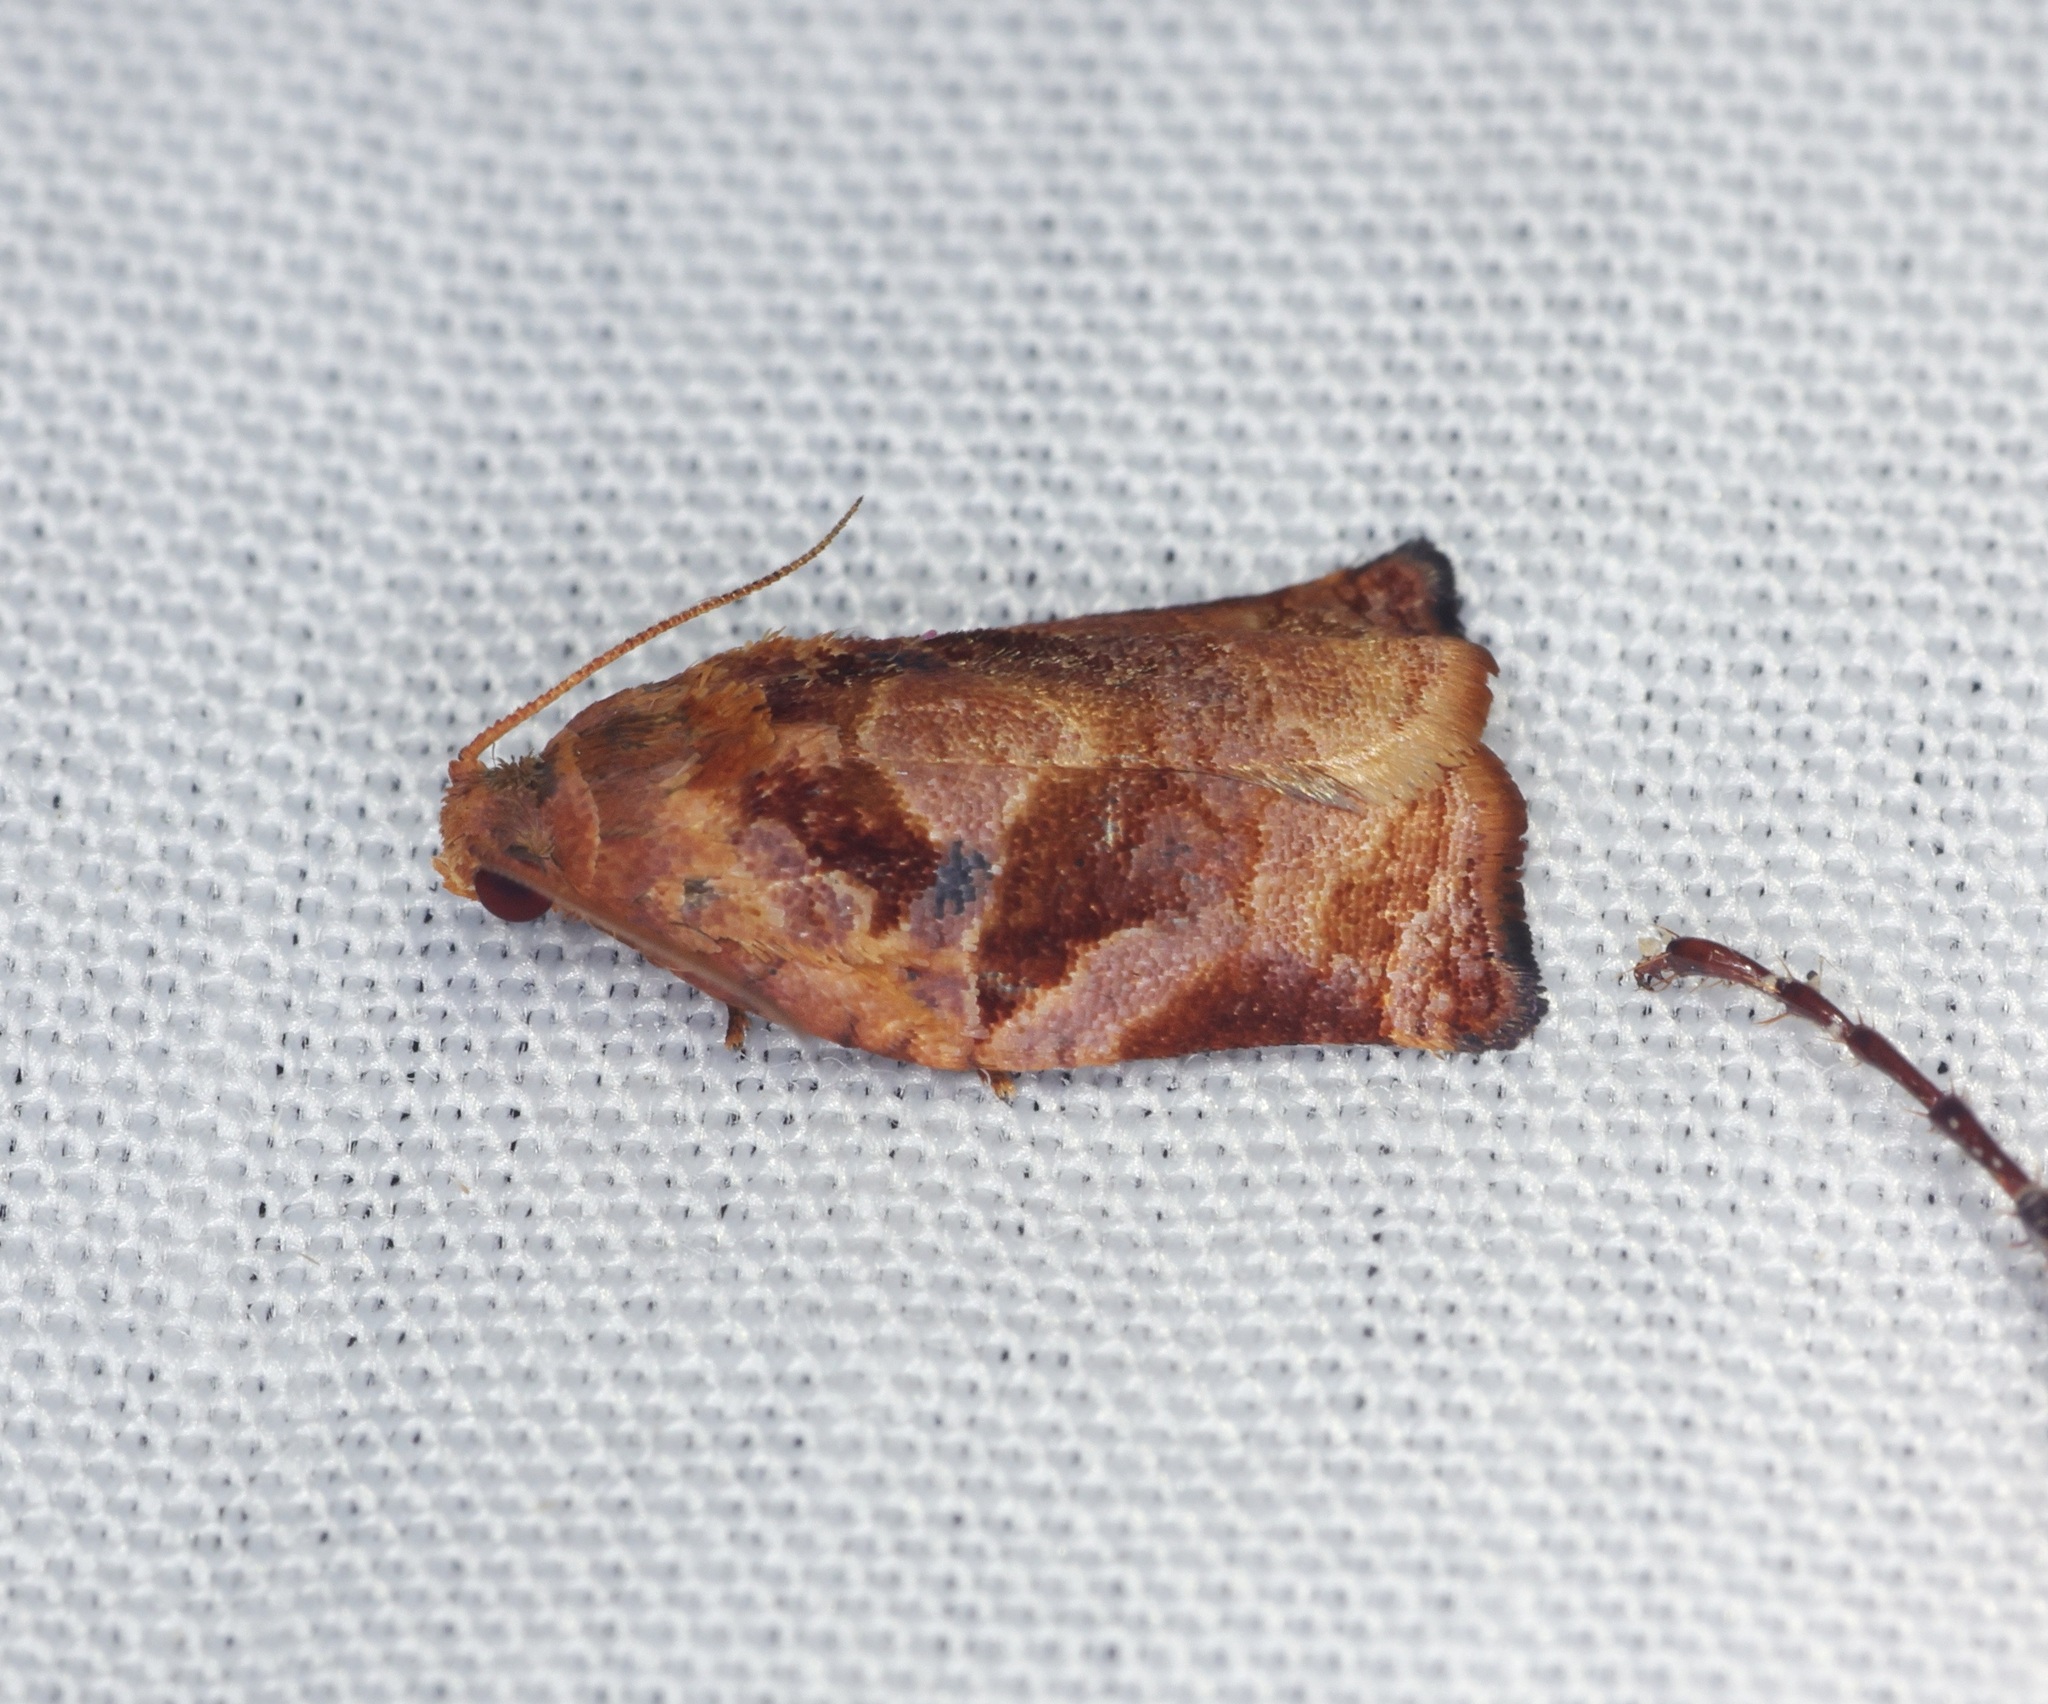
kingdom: Animalia
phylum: Arthropoda
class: Insecta
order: Lepidoptera
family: Tortricidae
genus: Archips
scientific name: Archips micaceana
